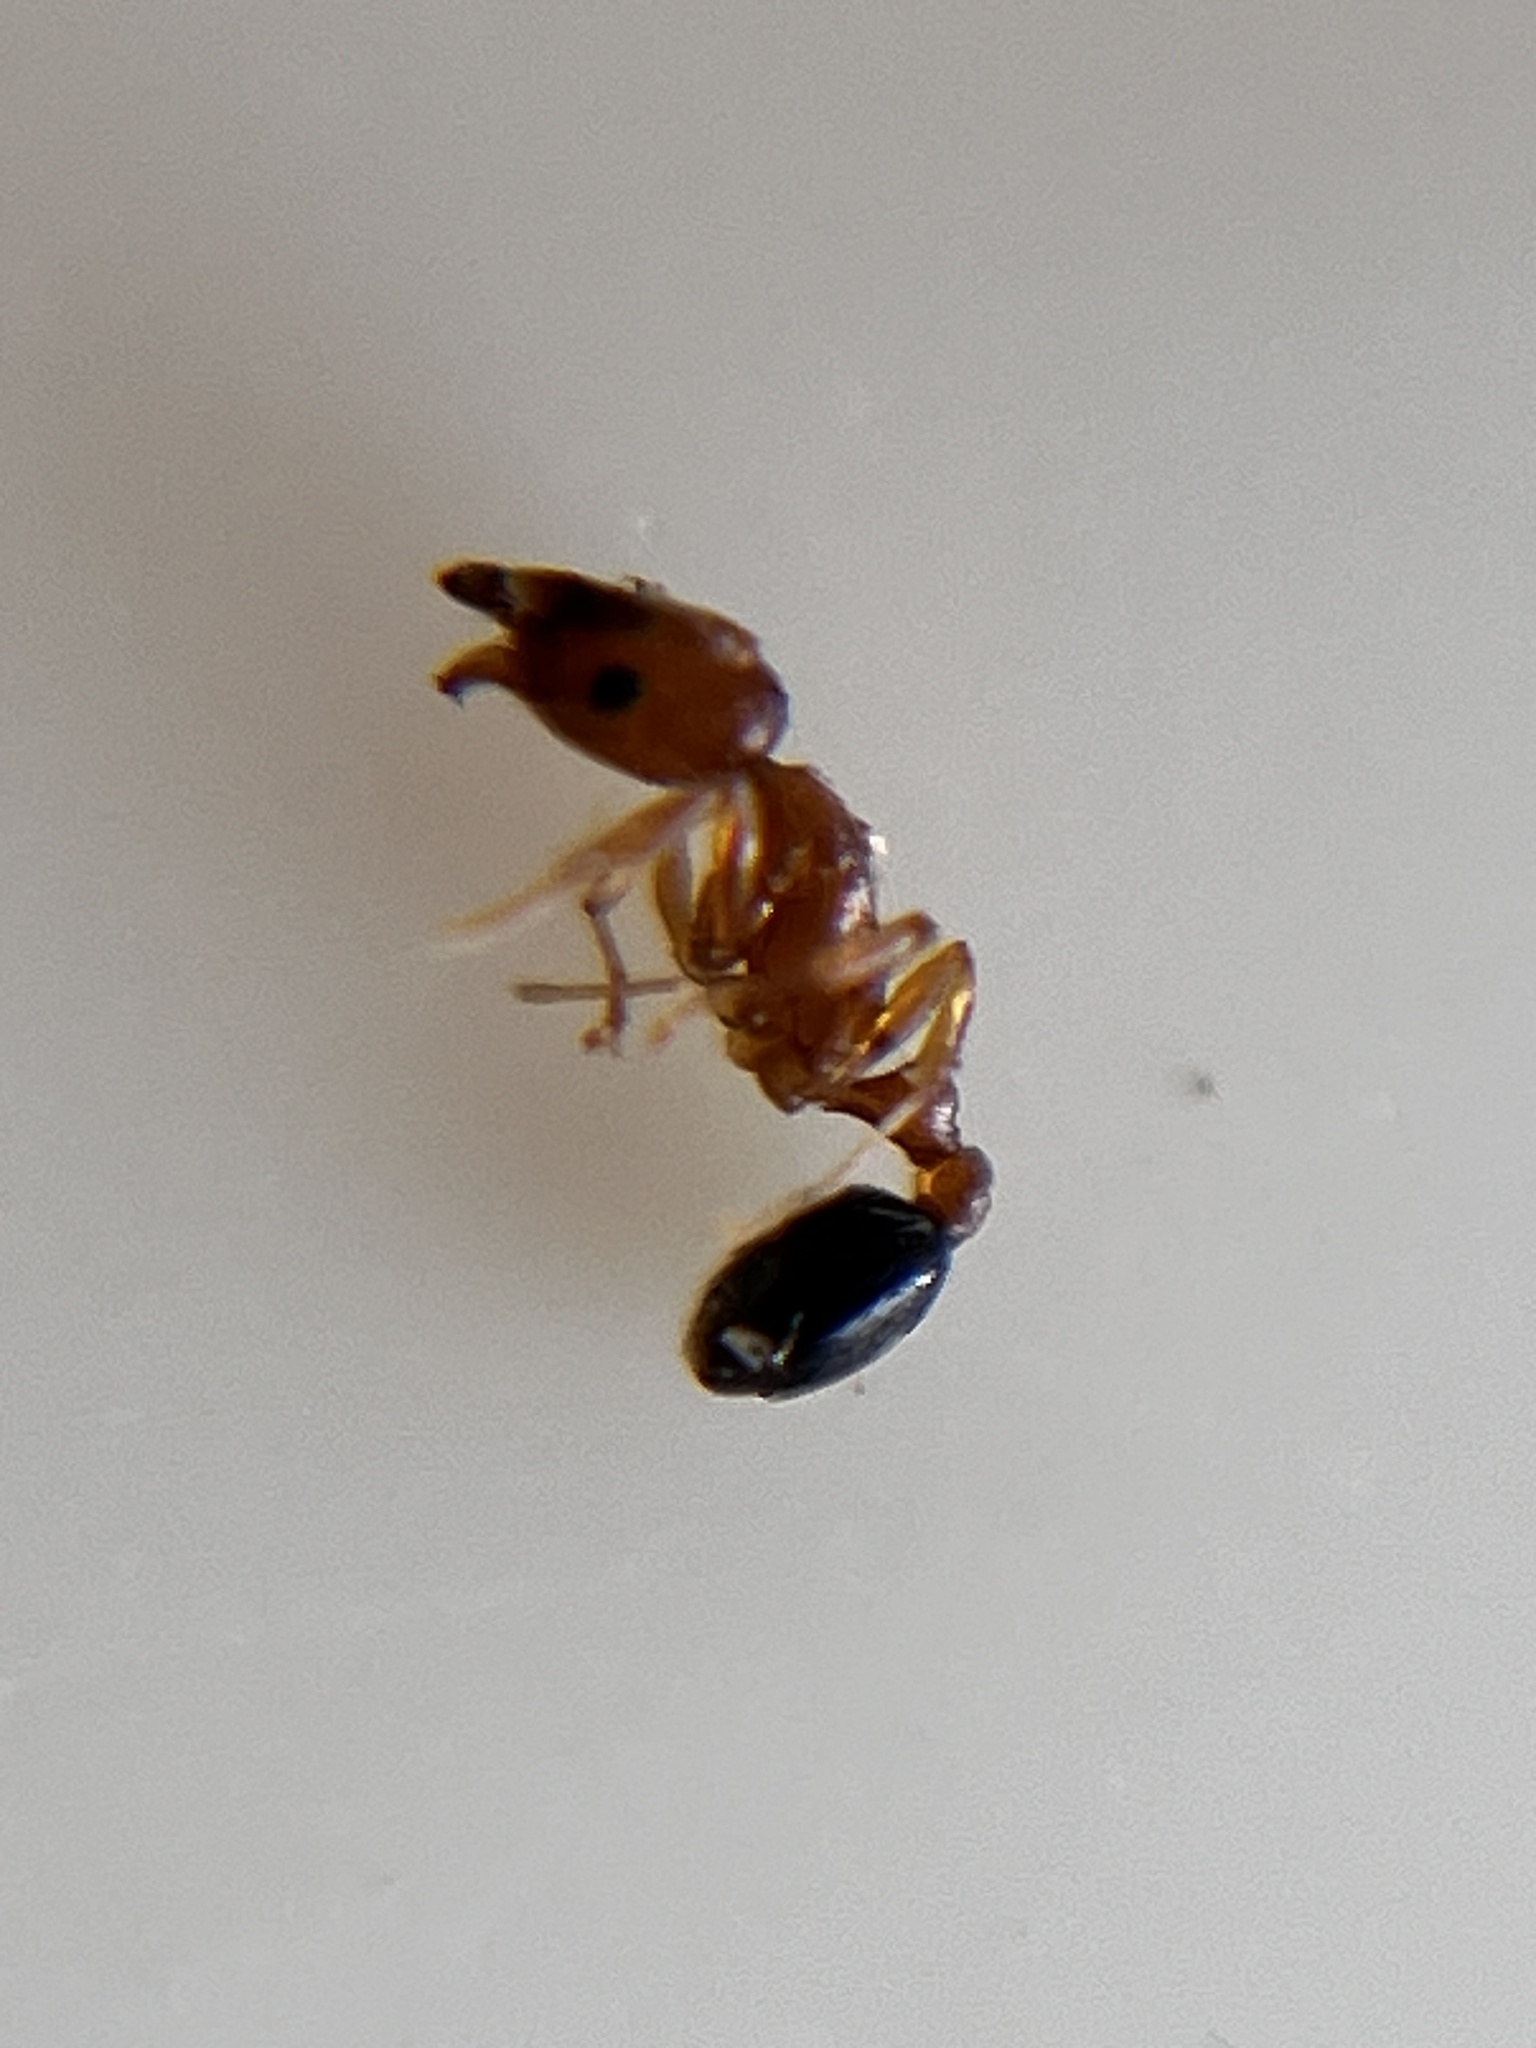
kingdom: Animalia
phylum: Arthropoda
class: Insecta
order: Hymenoptera
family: Formicidae
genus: Cardiocondyla
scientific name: Cardiocondyla shagrinata
